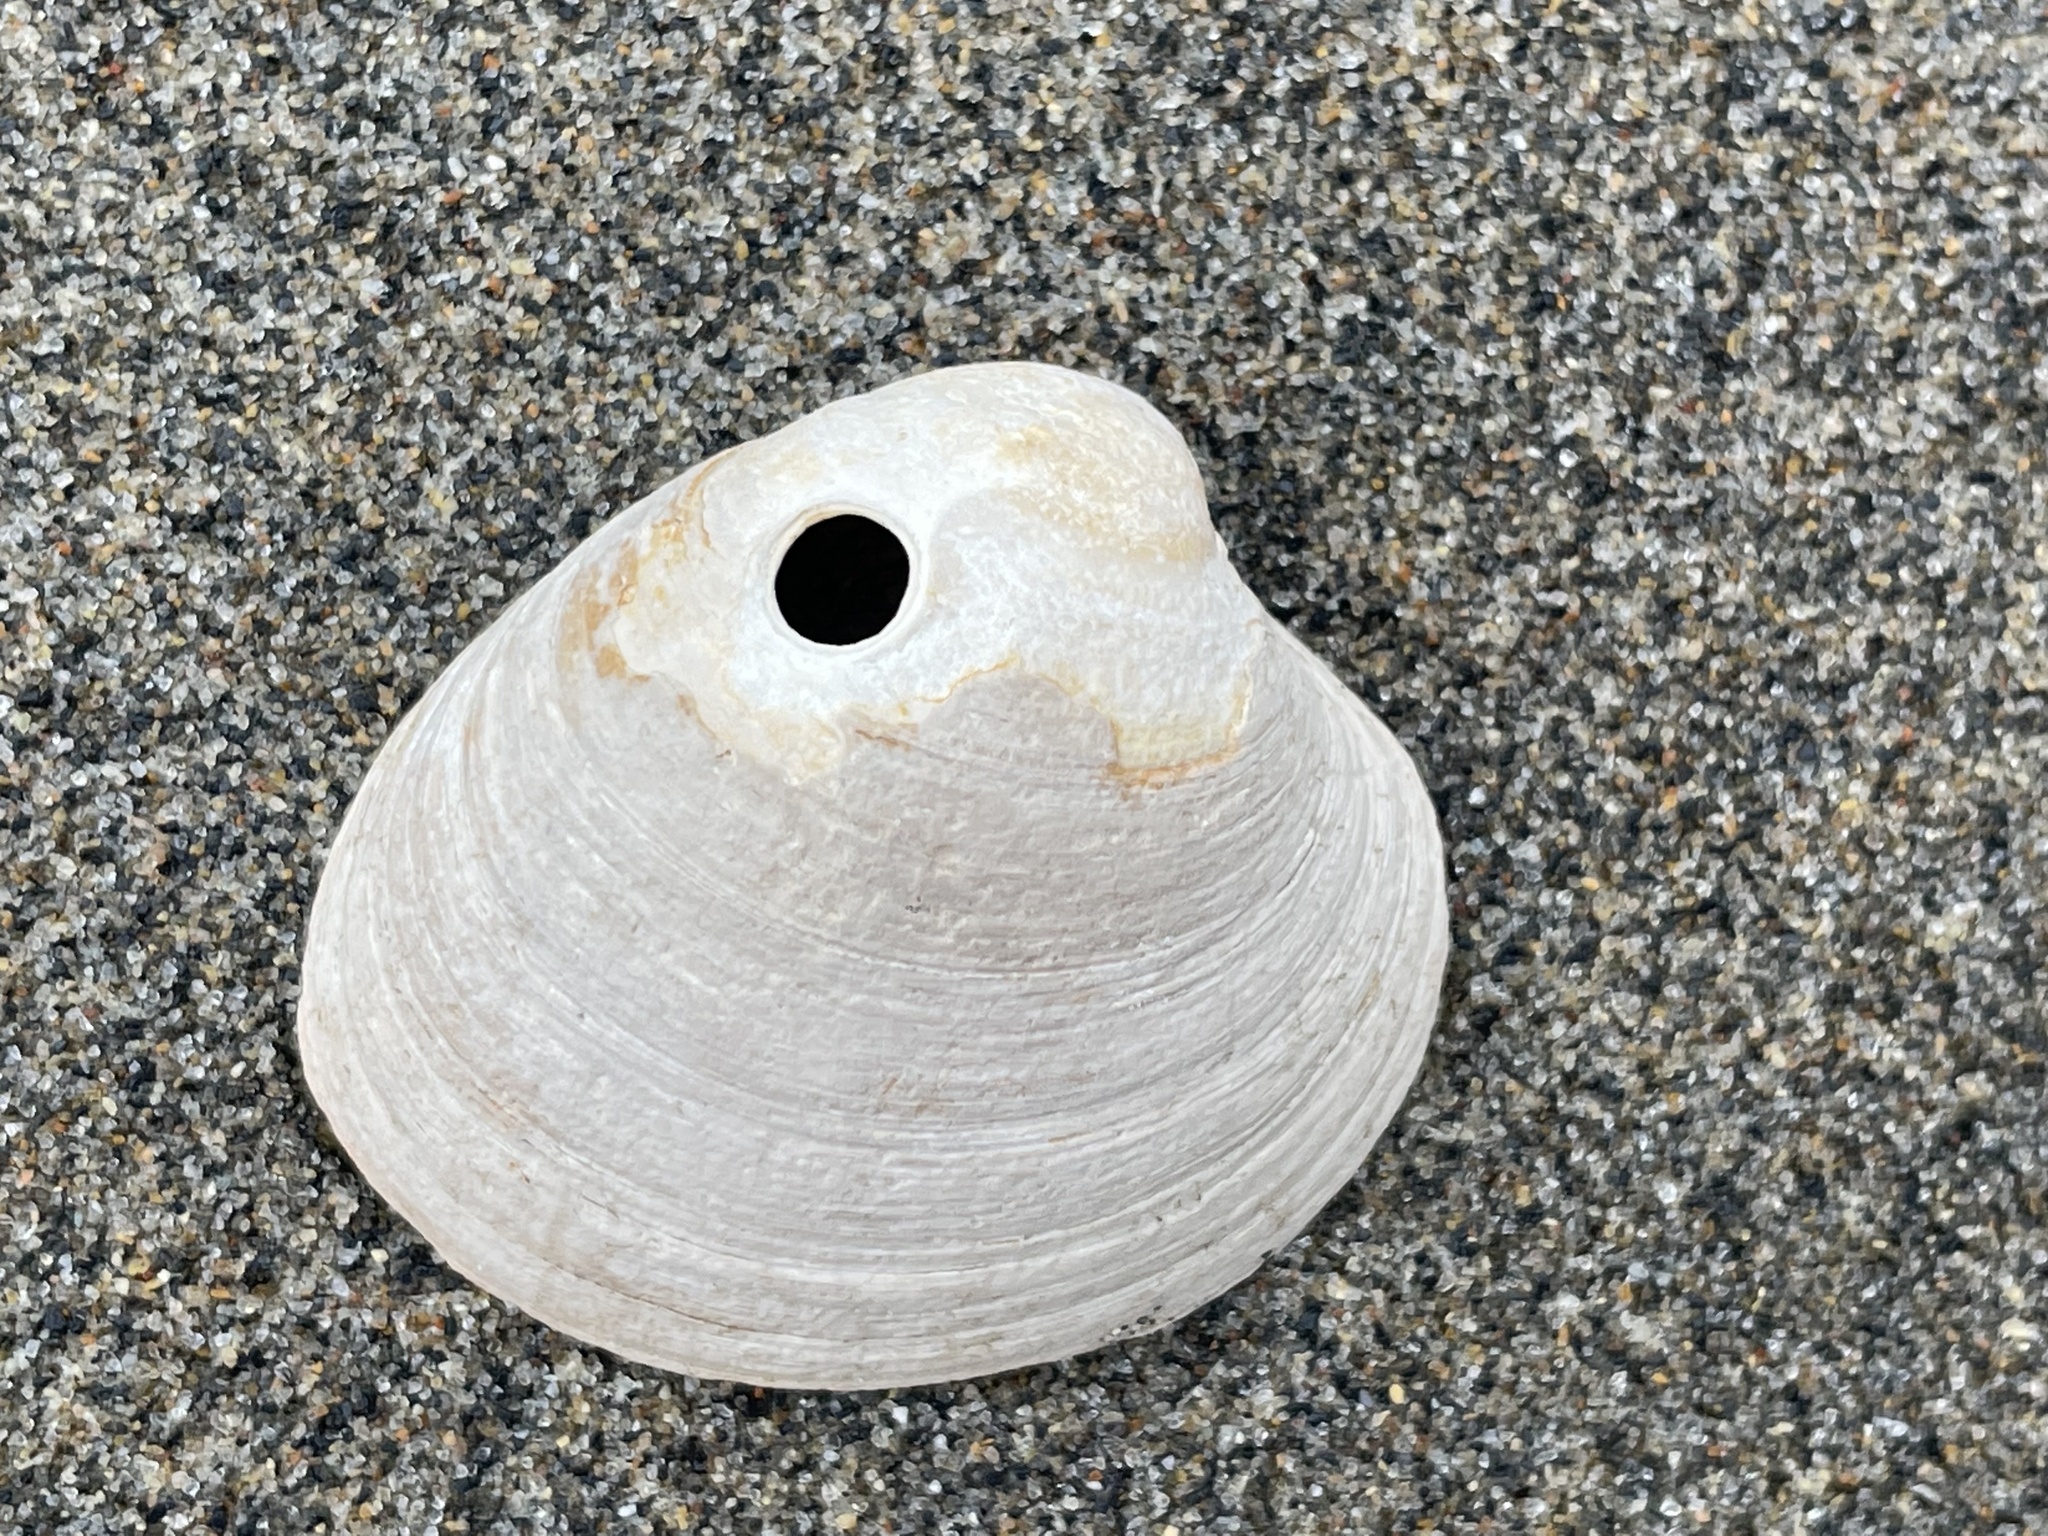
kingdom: Animalia
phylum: Mollusca
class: Bivalvia
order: Venerida
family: Veneridae
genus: Agriopoma
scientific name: Agriopoma morrhuanum
